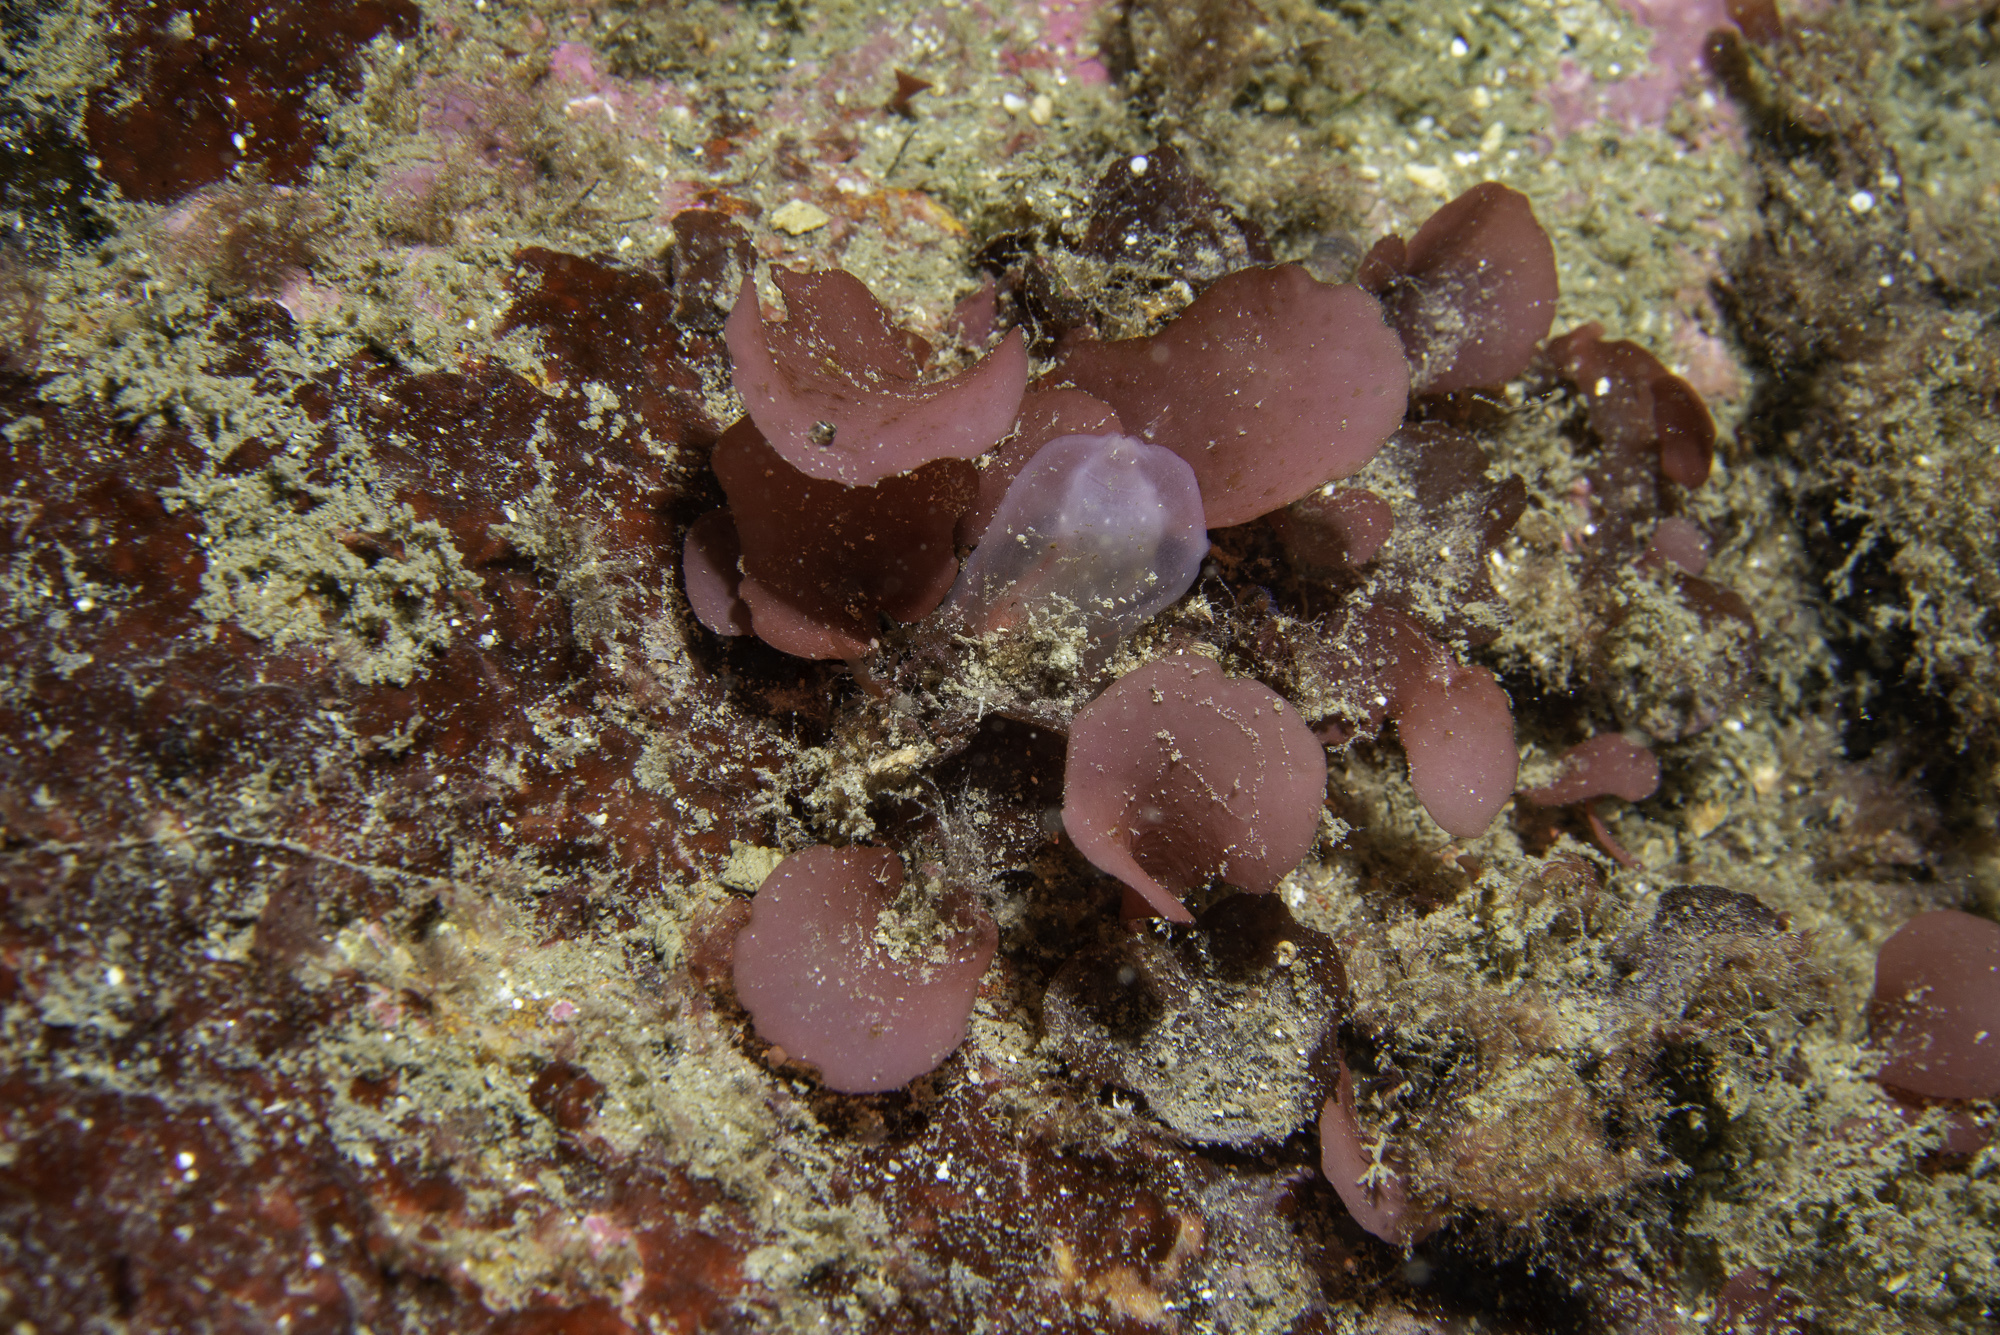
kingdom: Plantae
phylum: Rhodophyta
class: Florideophyceae
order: Gigartinales
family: Kallymeniaceae
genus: Meredithia
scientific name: Meredithia microphylla
